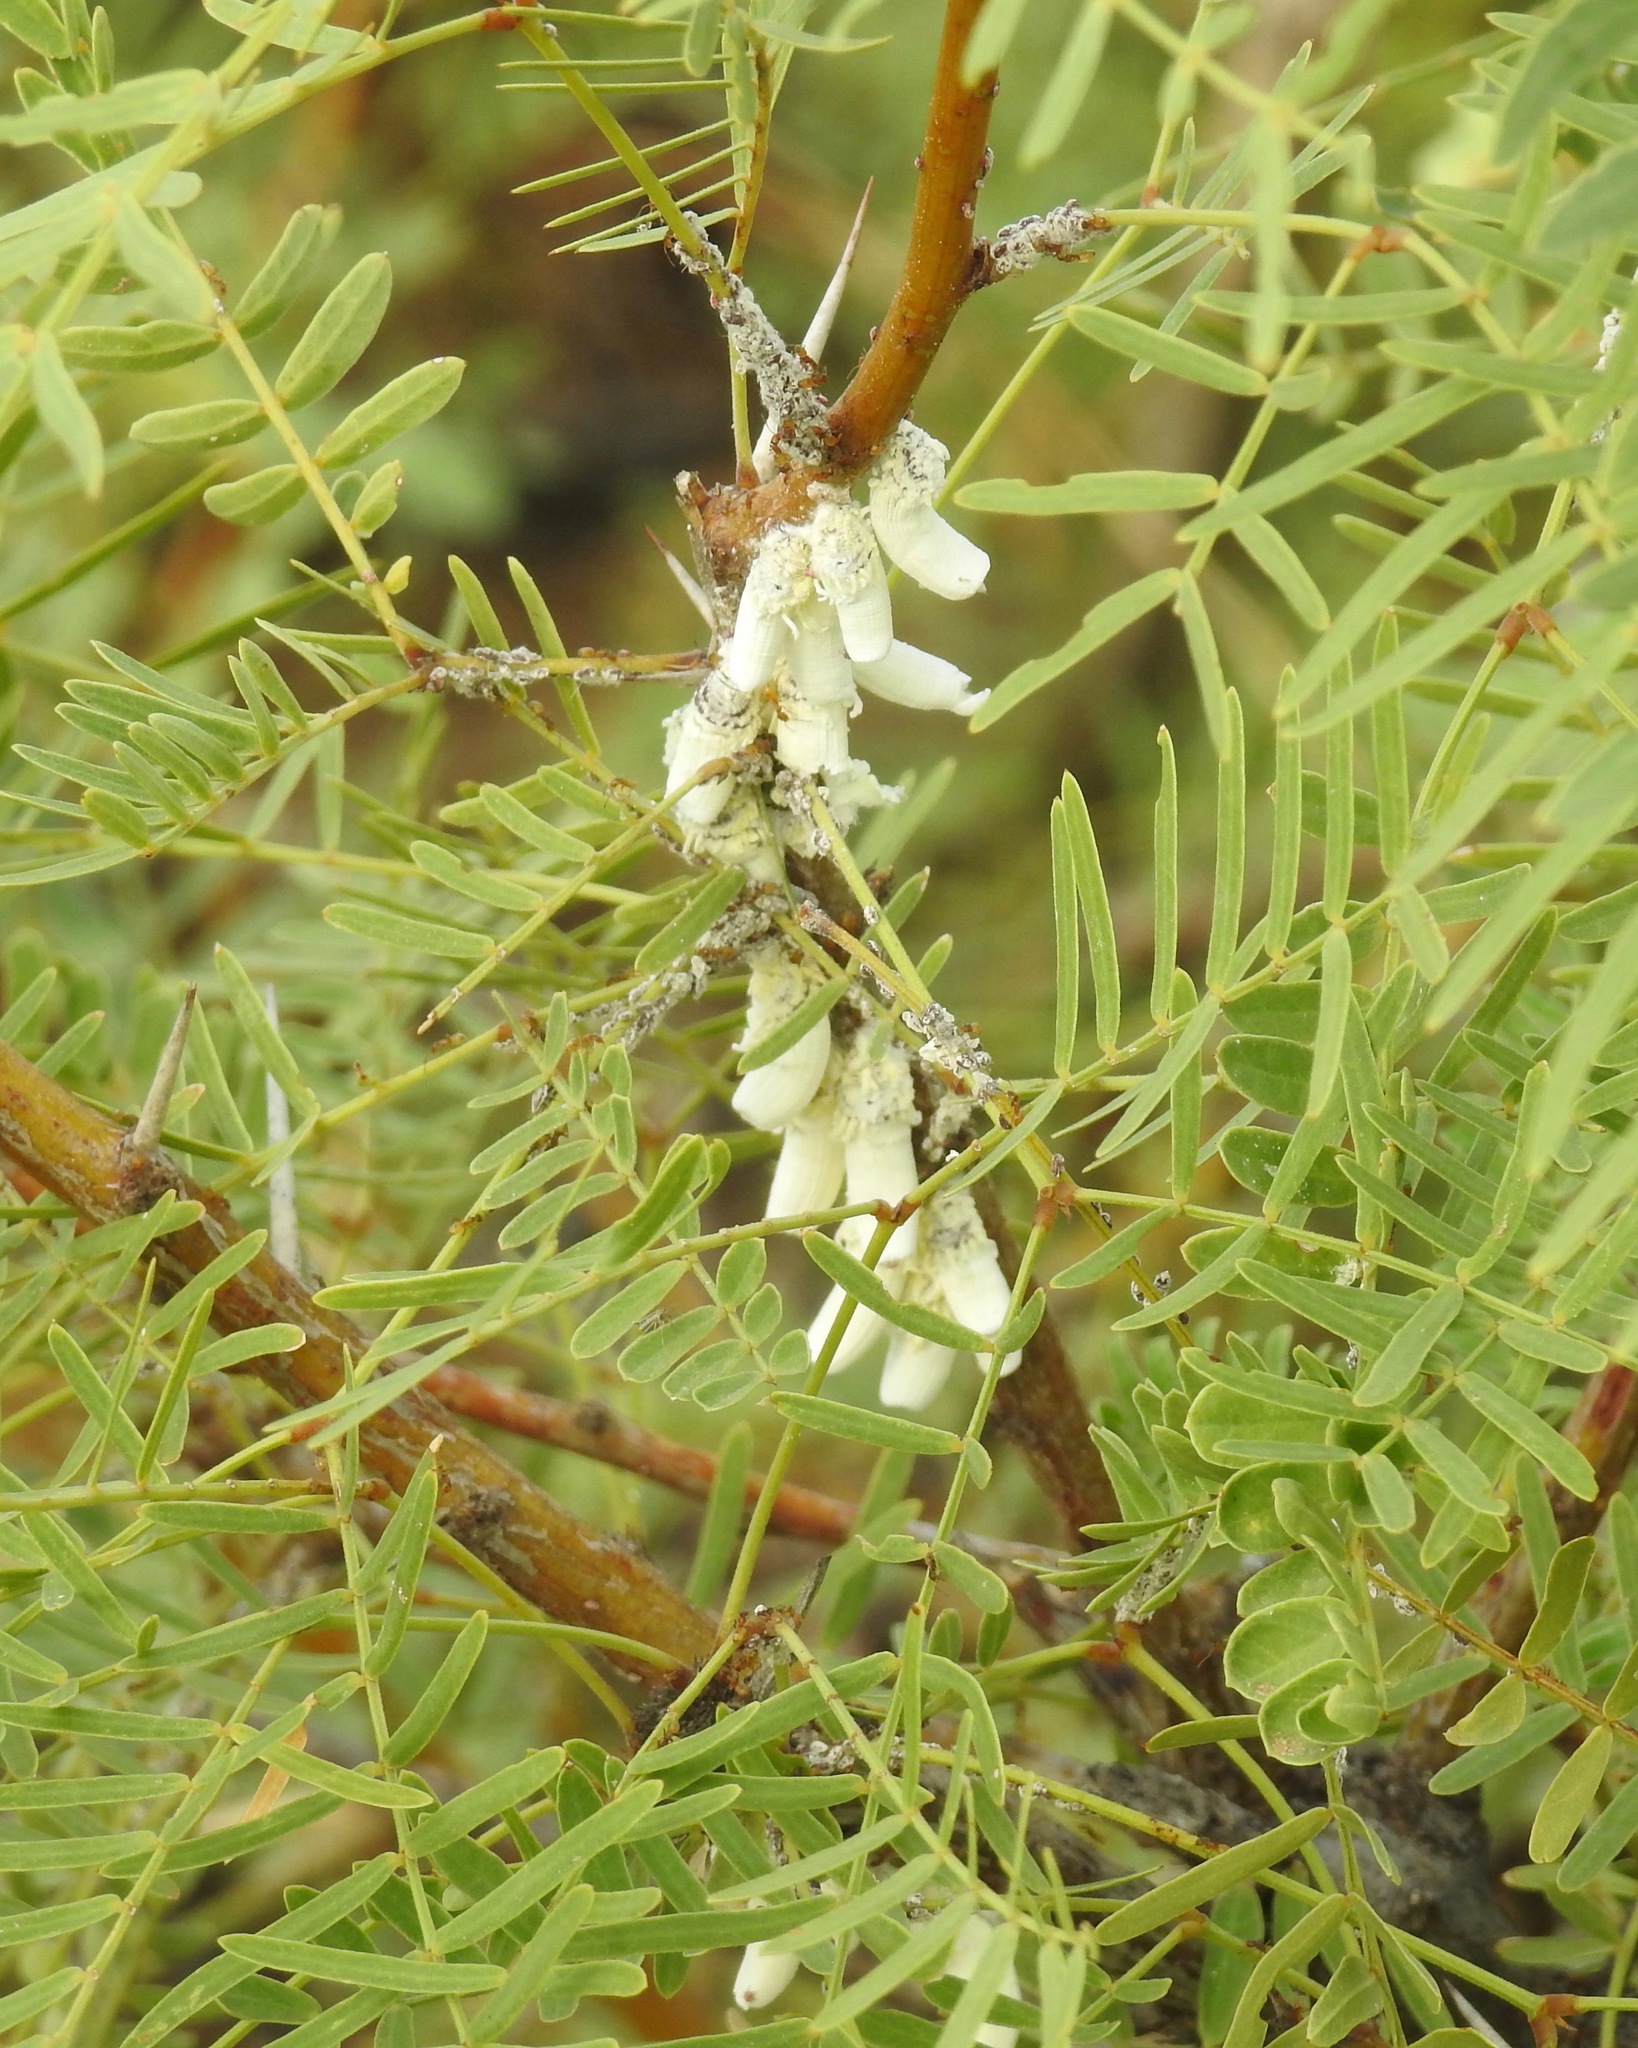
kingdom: Animalia
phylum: Arthropoda
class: Insecta
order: Hemiptera
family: Margarodidae
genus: Crypticerya
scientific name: Crypticerya rileyi
